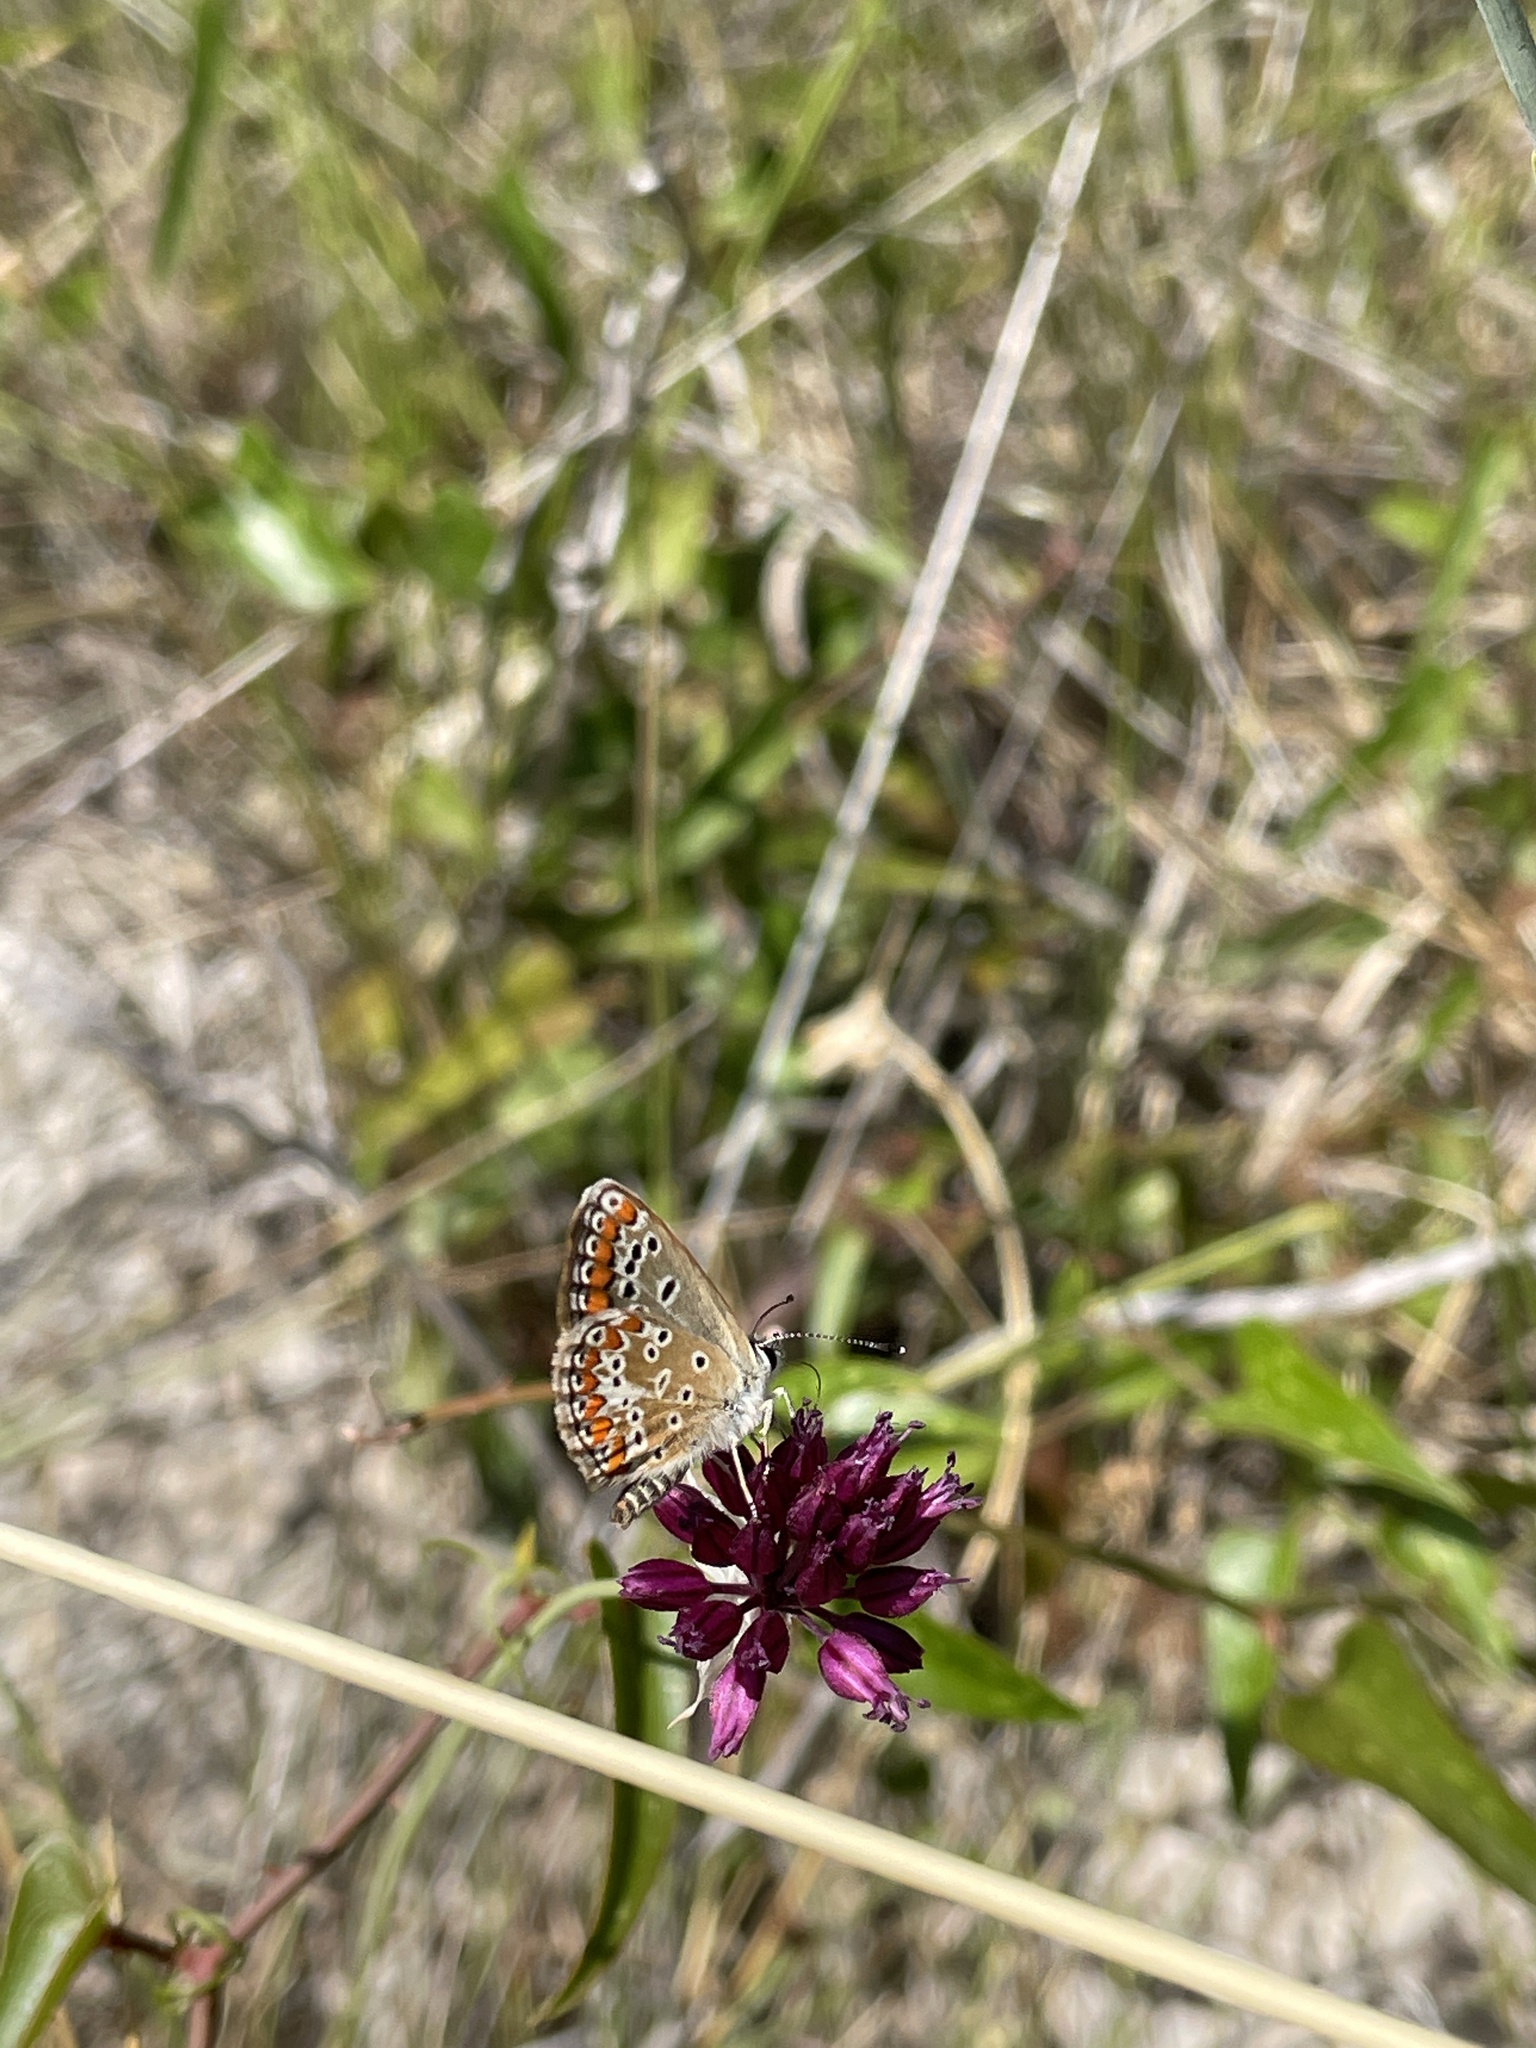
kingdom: Animalia
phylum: Arthropoda
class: Insecta
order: Lepidoptera
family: Lycaenidae
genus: Aricia
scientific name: Aricia agestis
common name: Brown argus
